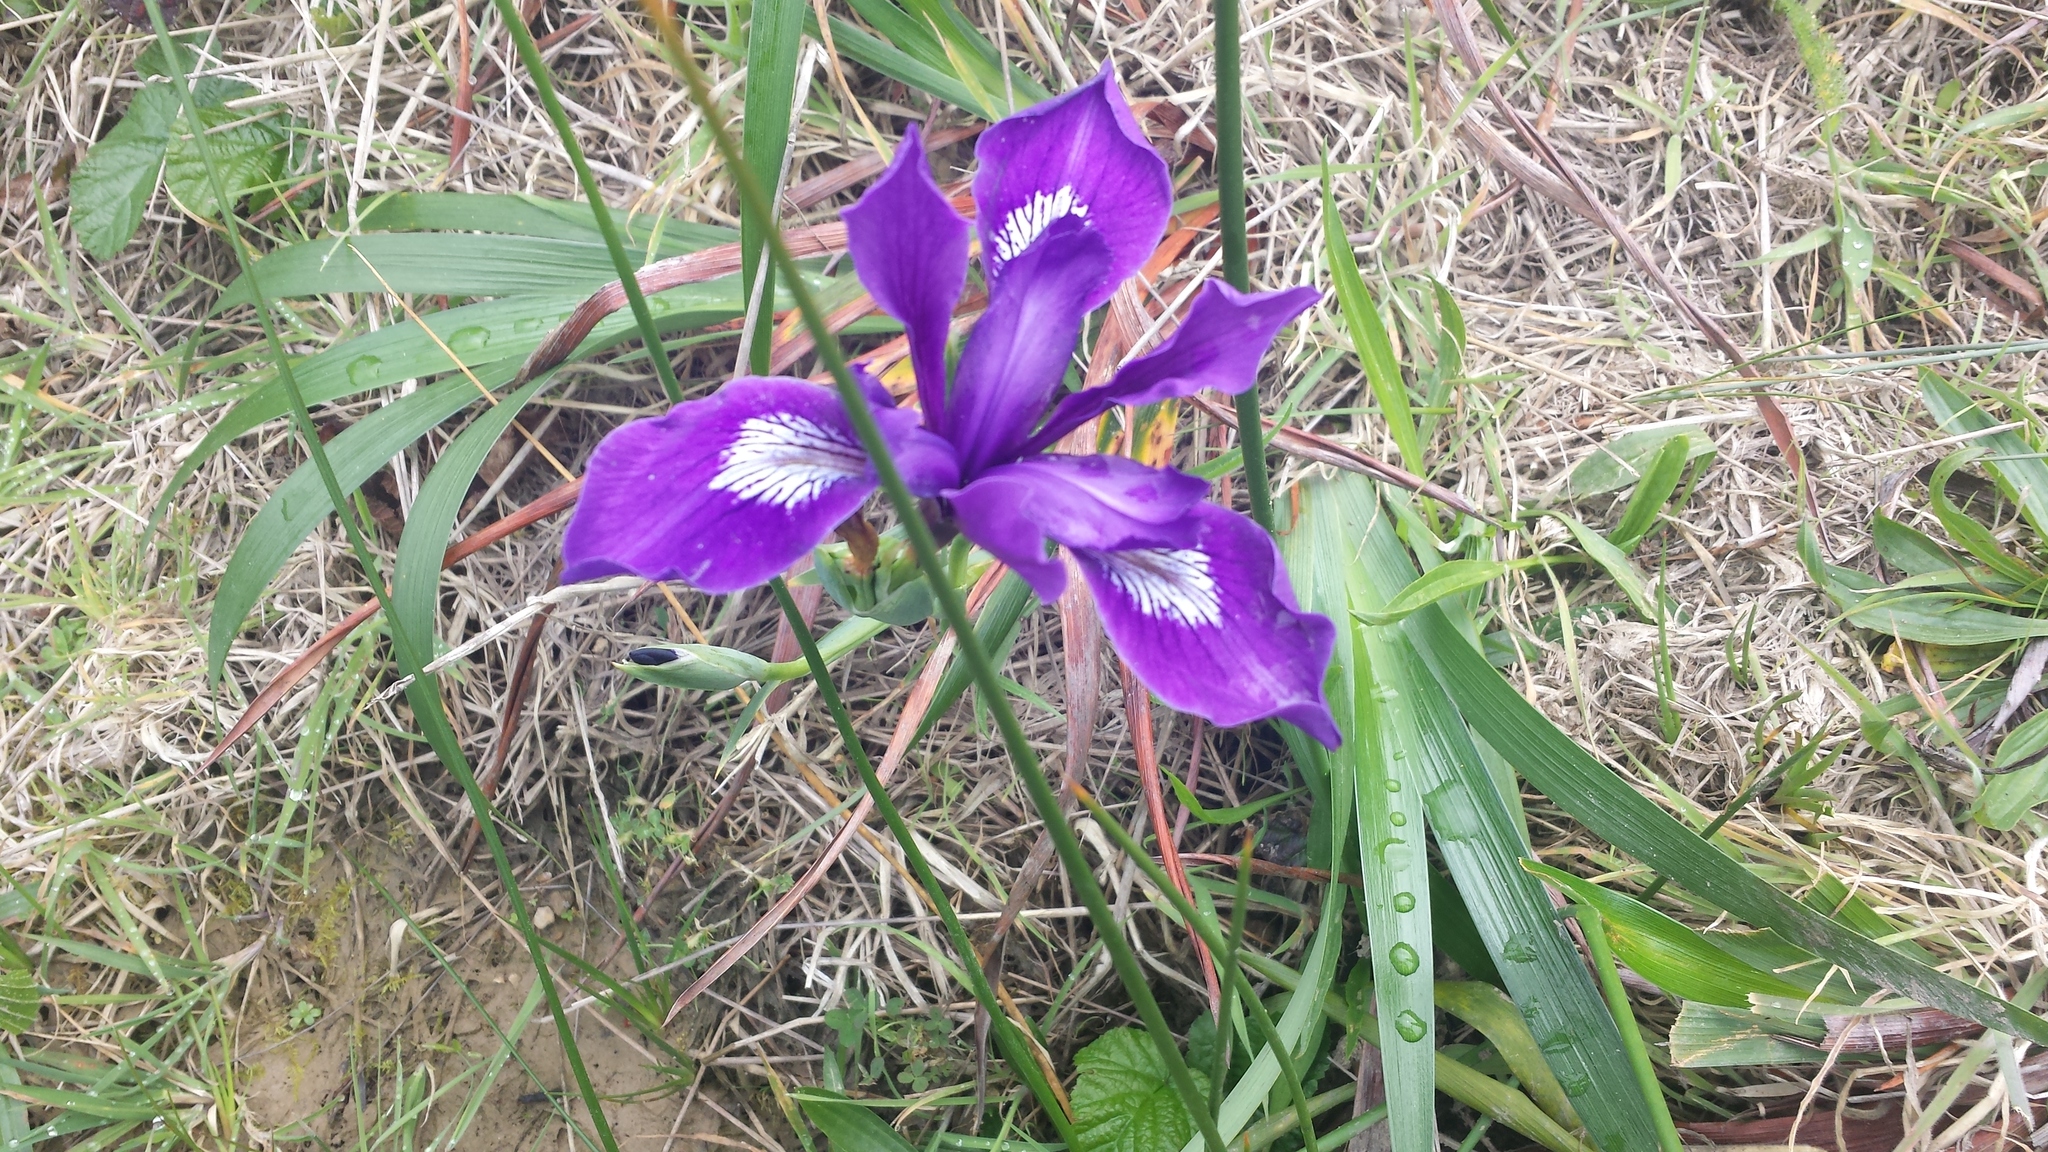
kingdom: Plantae
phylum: Tracheophyta
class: Liliopsida
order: Asparagales
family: Iridaceae
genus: Iris
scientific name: Iris douglasiana
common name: Marin iris
